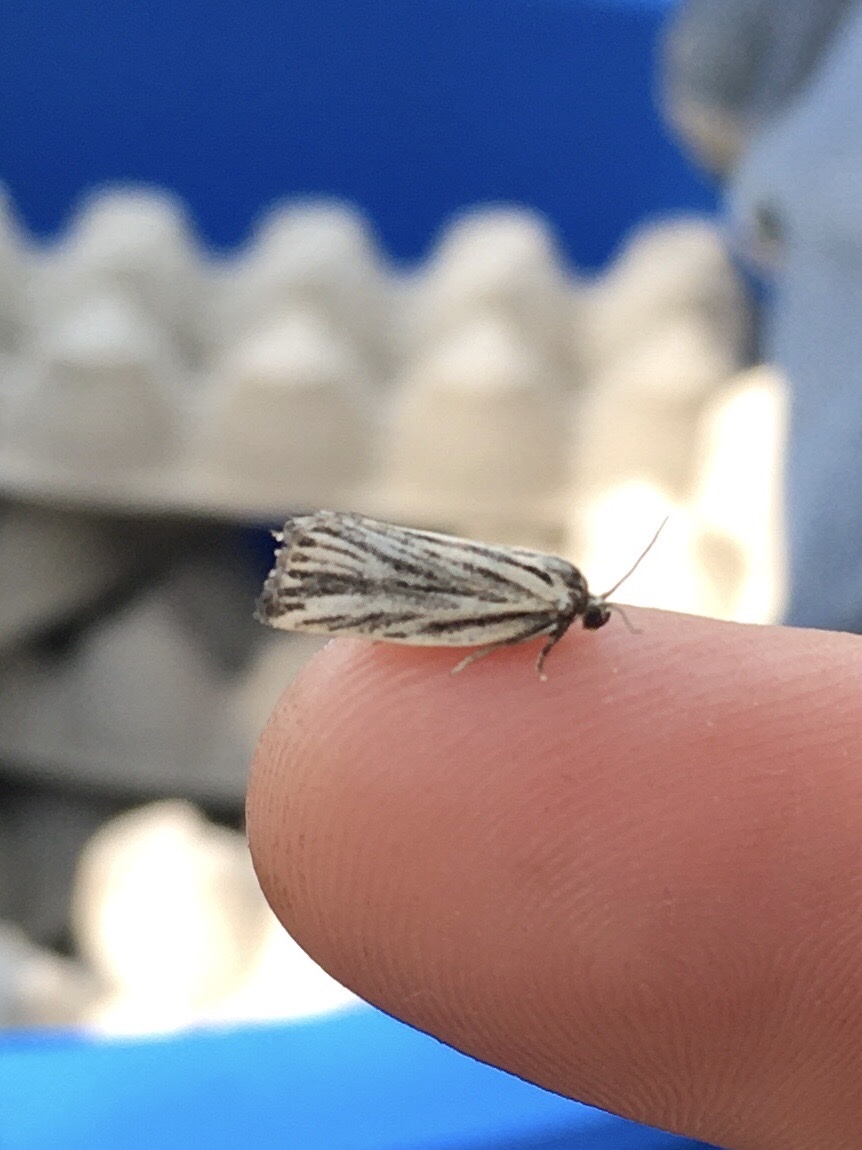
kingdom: Animalia
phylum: Arthropoda
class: Insecta
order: Lepidoptera
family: Tortricidae
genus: Archips
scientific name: Archips strianus
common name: Striated tortrix moth
